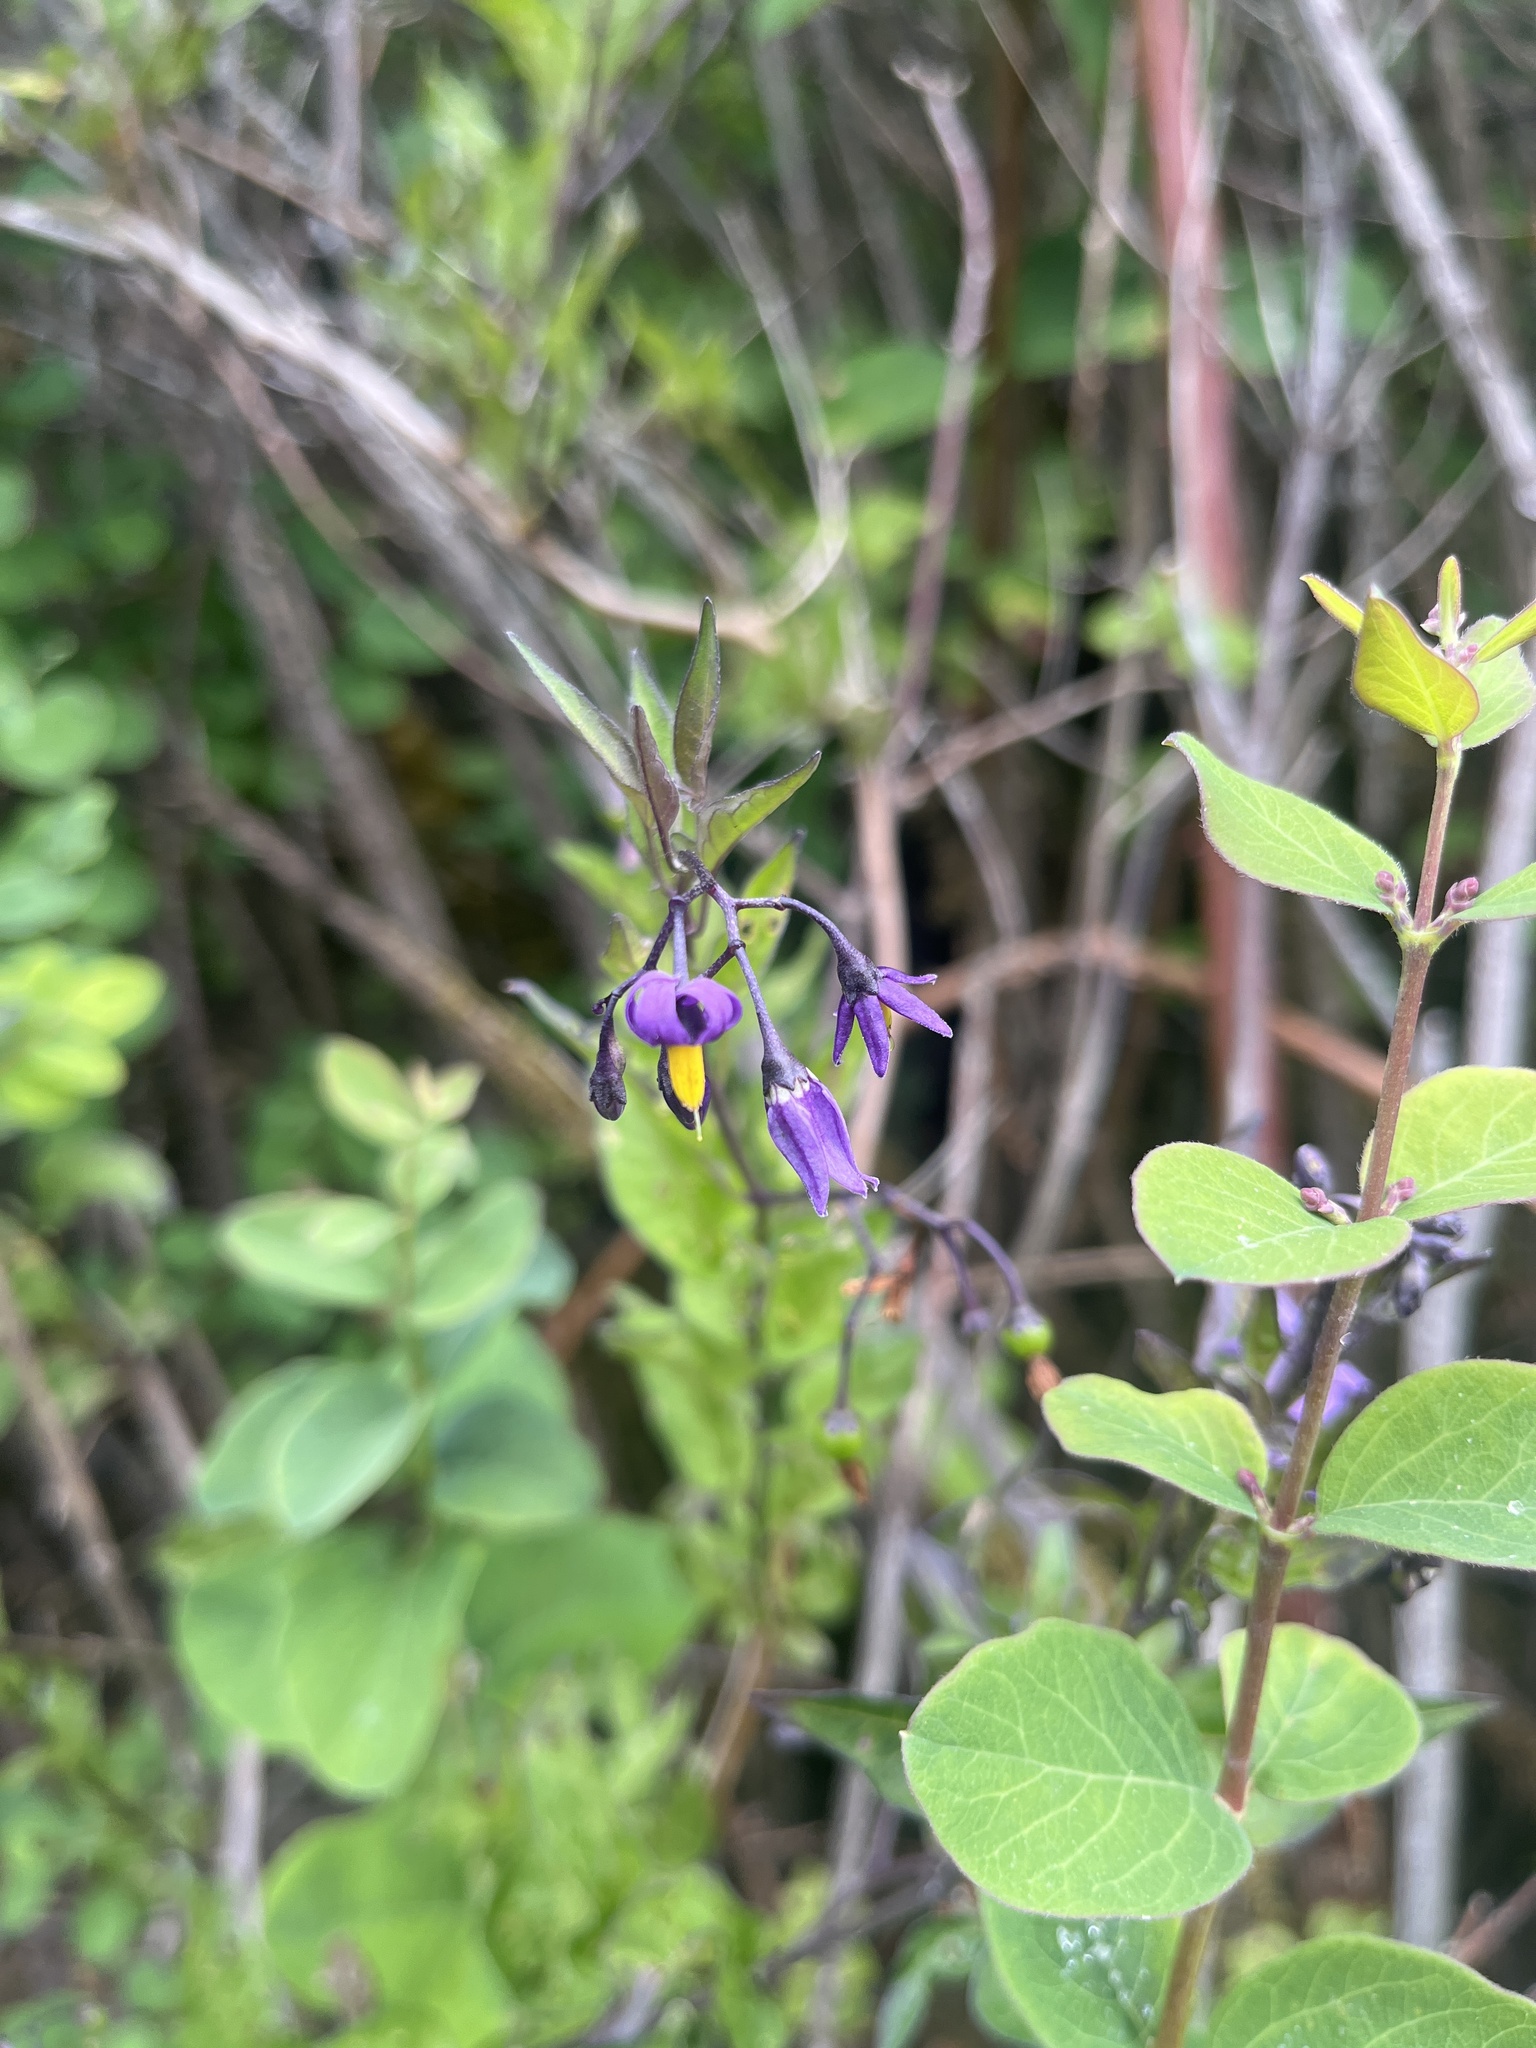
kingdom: Plantae
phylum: Tracheophyta
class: Magnoliopsida
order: Solanales
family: Solanaceae
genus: Solanum
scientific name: Solanum dulcamara
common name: Climbing nightshade
